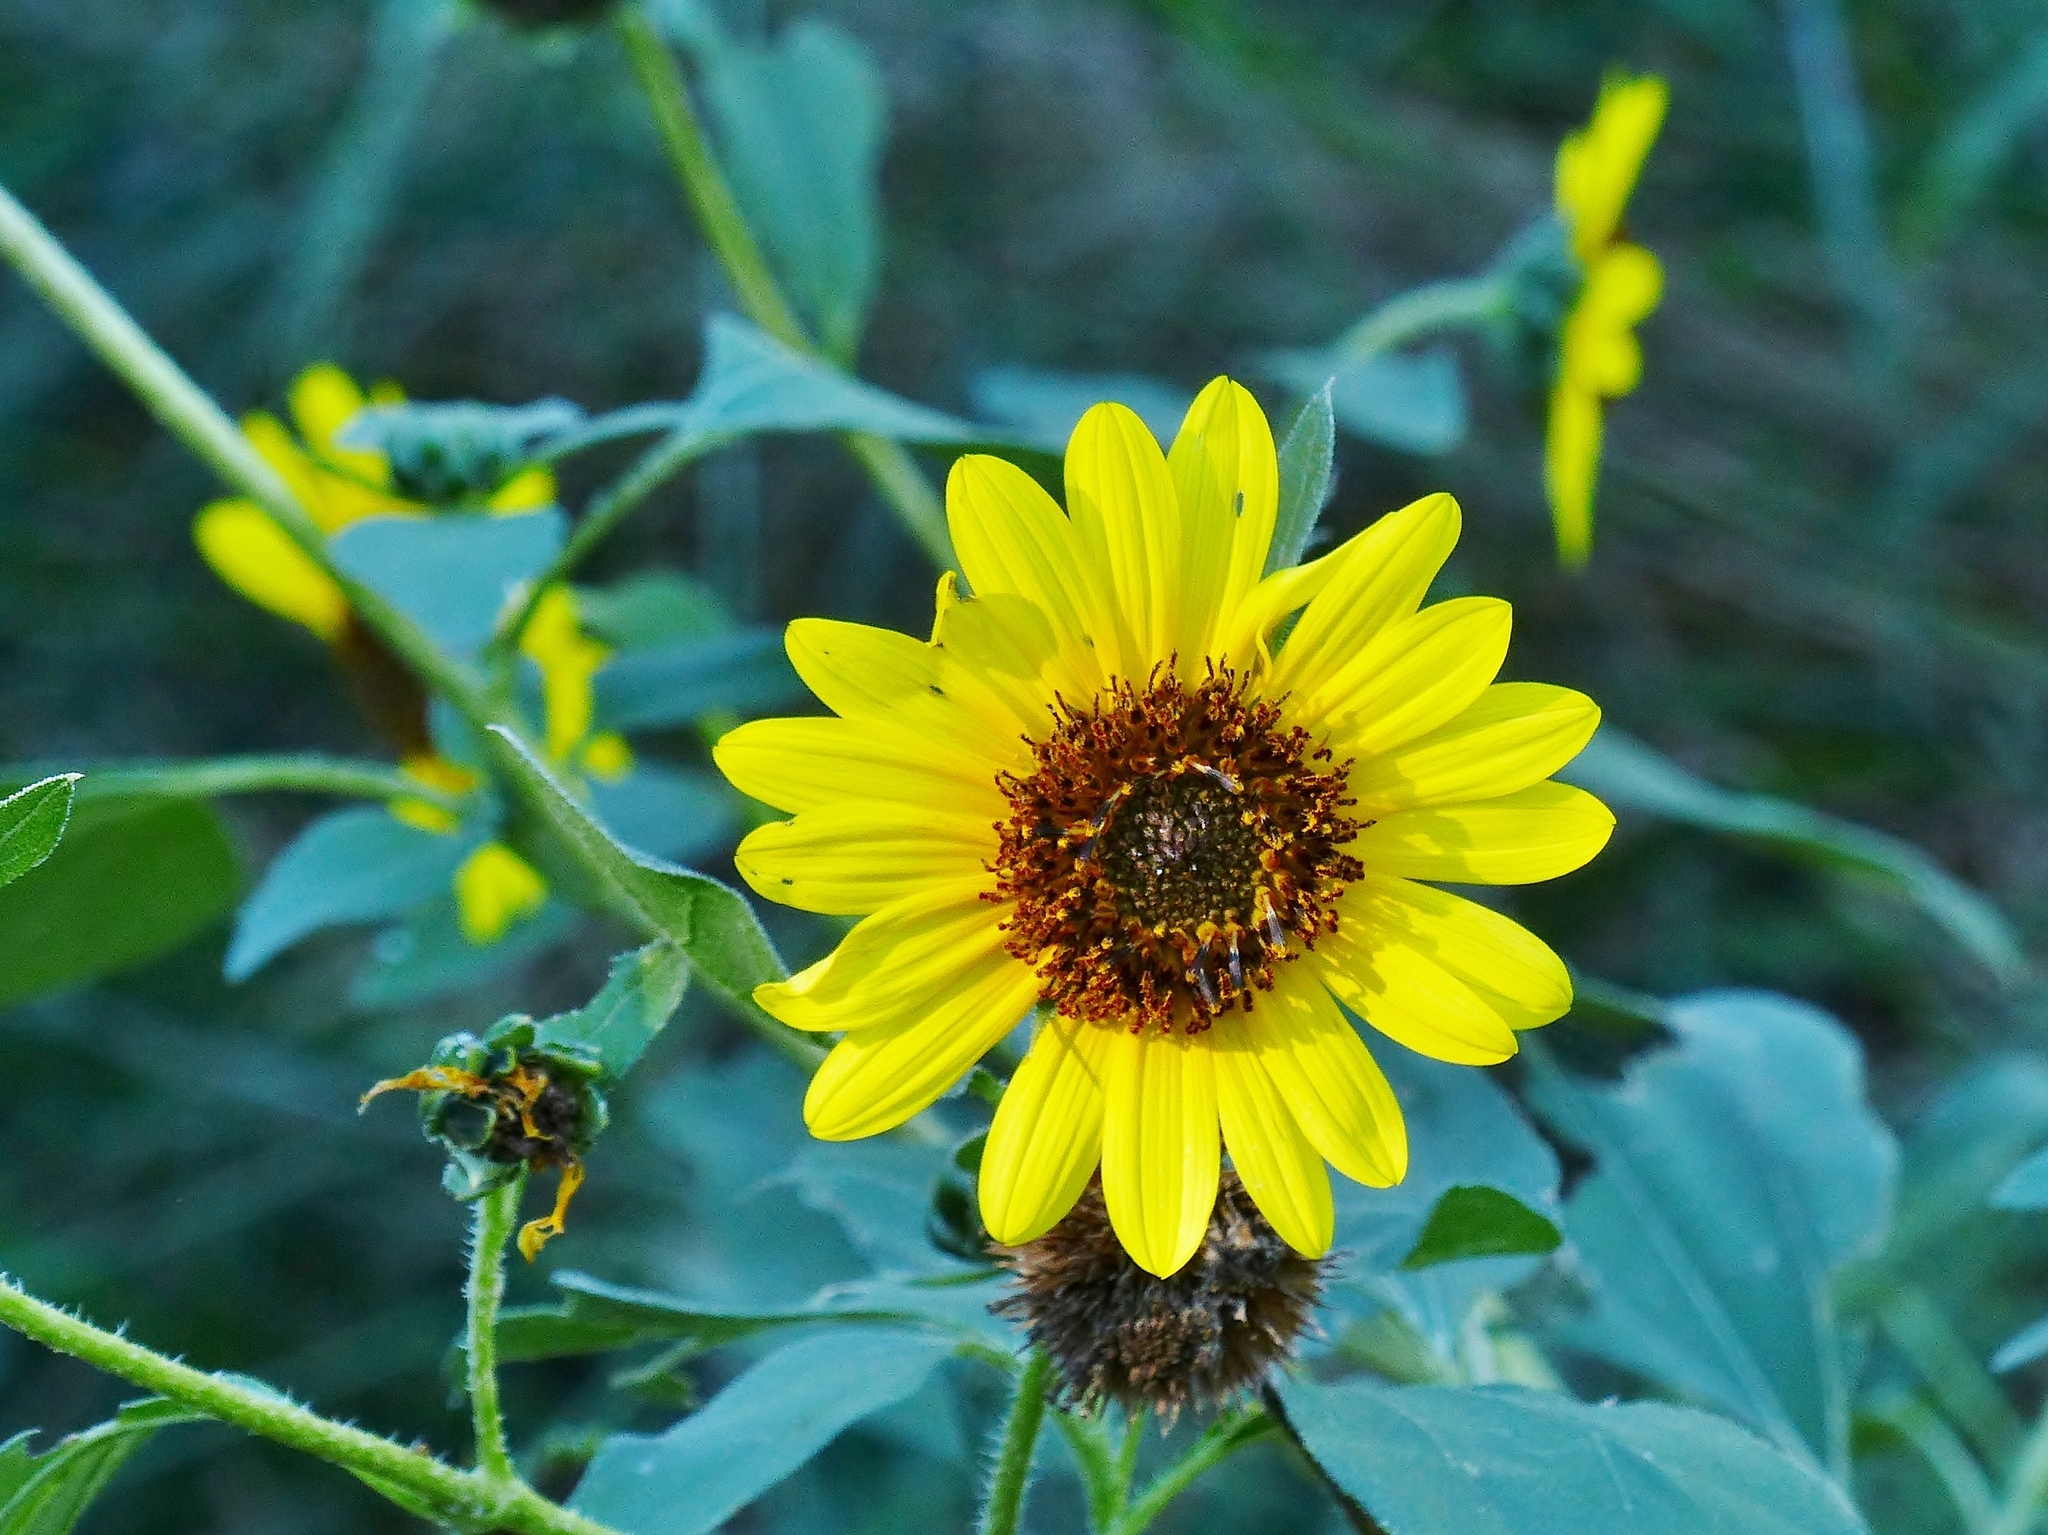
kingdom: Plantae
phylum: Tracheophyta
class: Magnoliopsida
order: Asterales
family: Asteraceae
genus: Helianthus
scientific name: Helianthus annuus
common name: Sunflower
